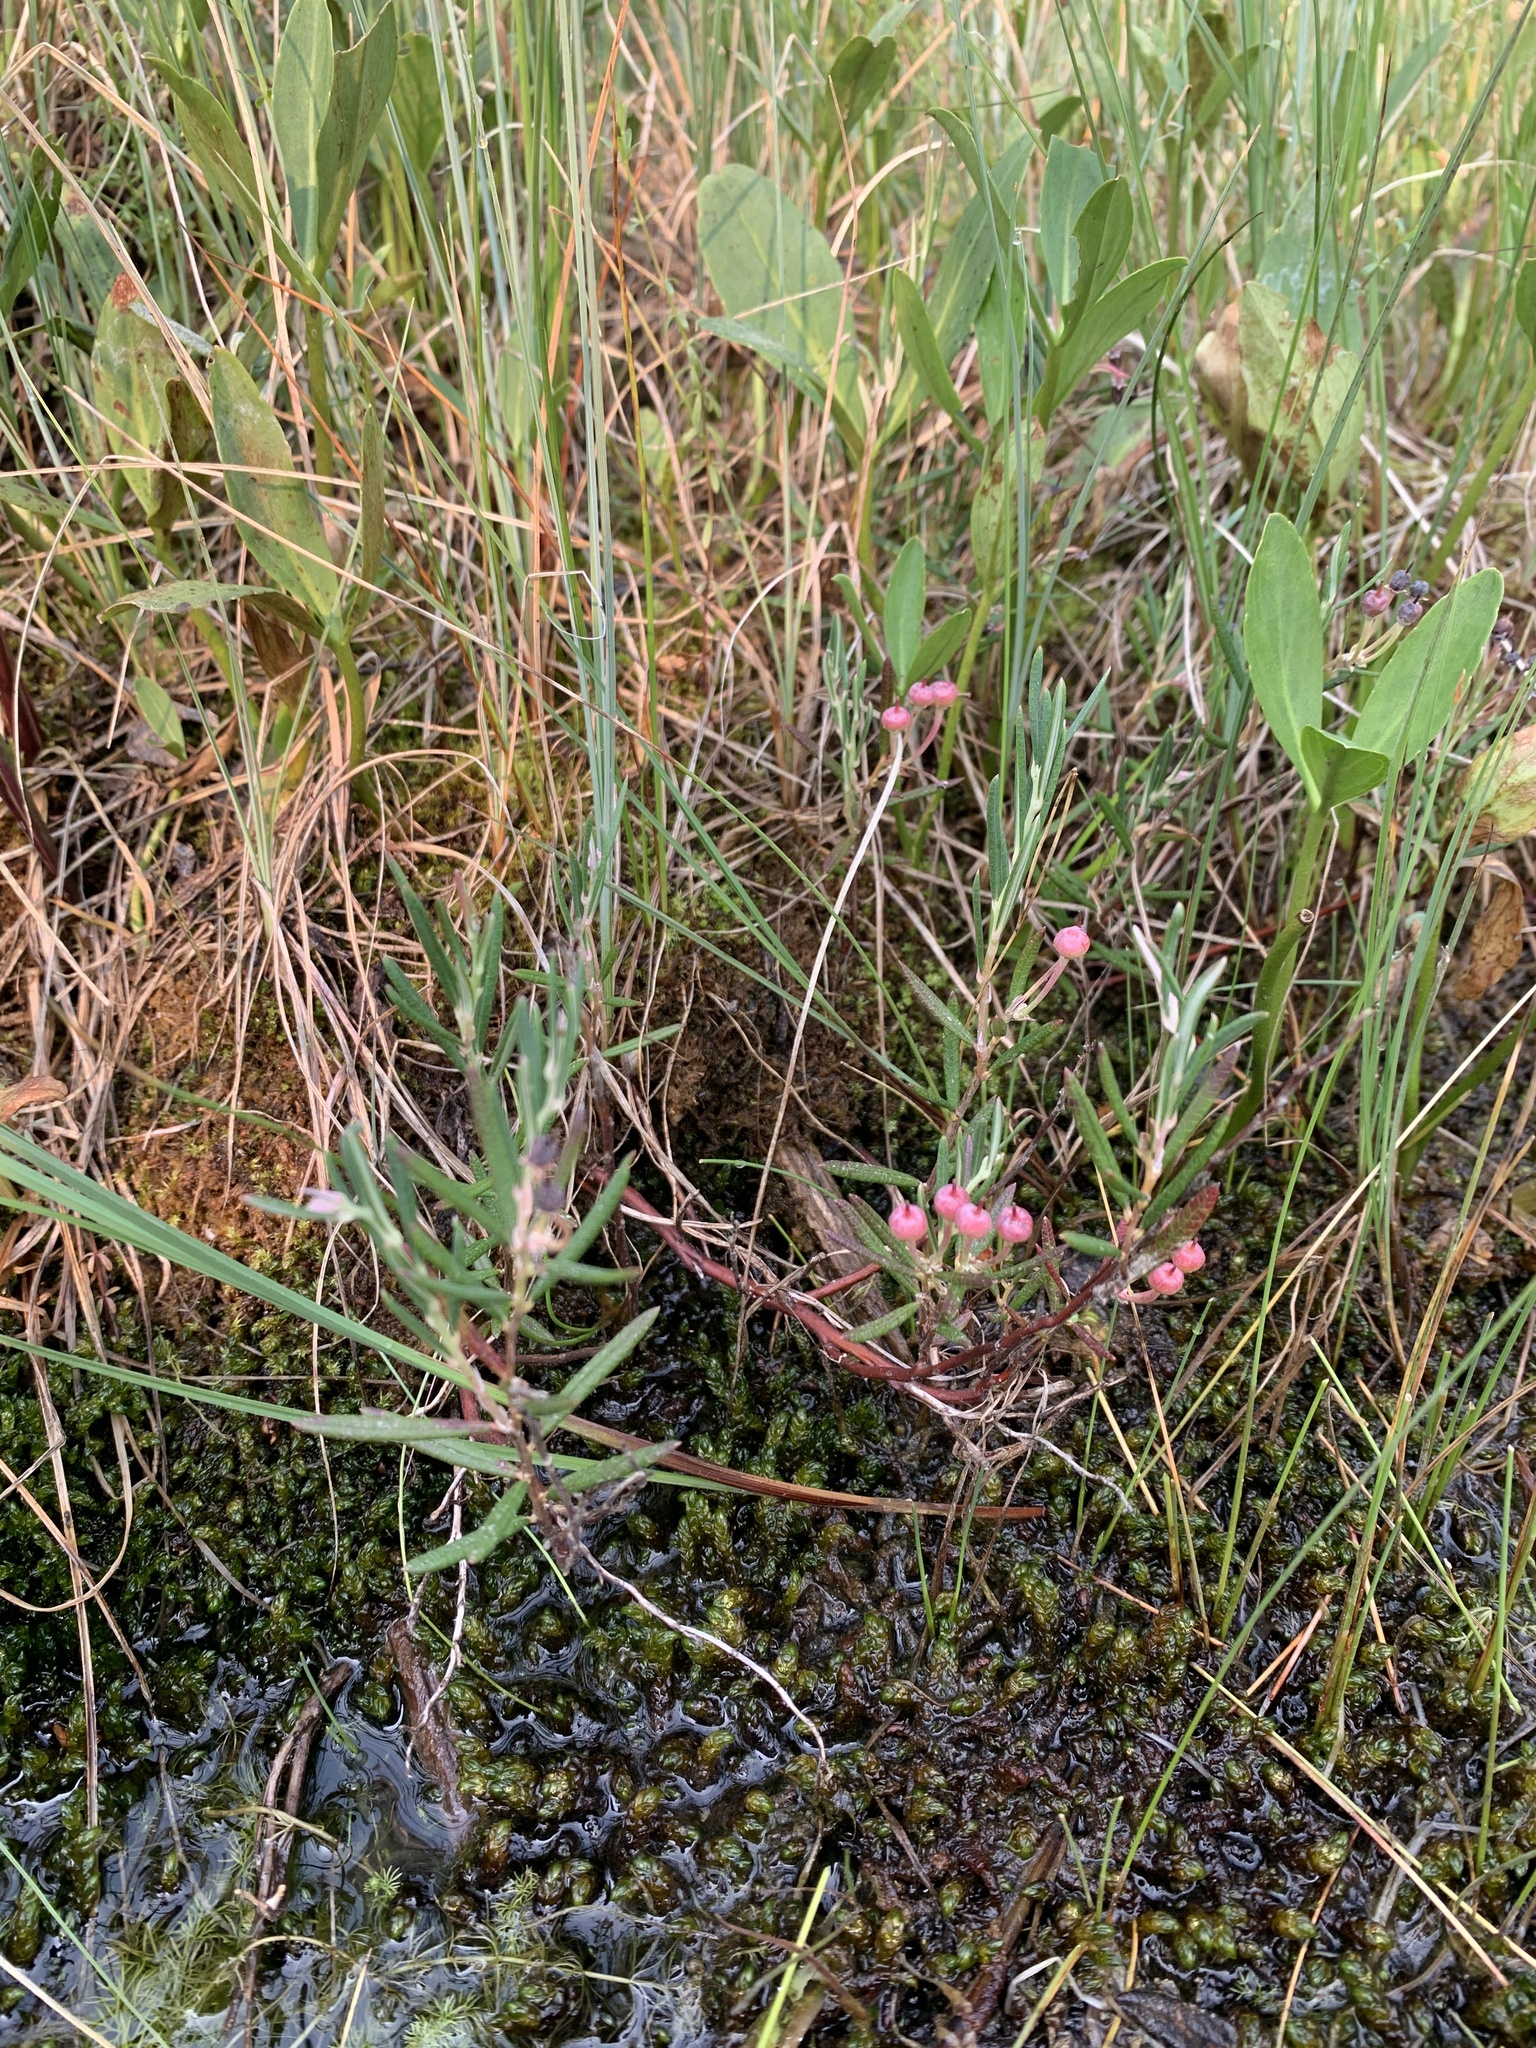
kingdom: Plantae
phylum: Tracheophyta
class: Magnoliopsida
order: Ericales
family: Ericaceae
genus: Andromeda
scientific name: Andromeda polifolia
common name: Bog-rosemary
